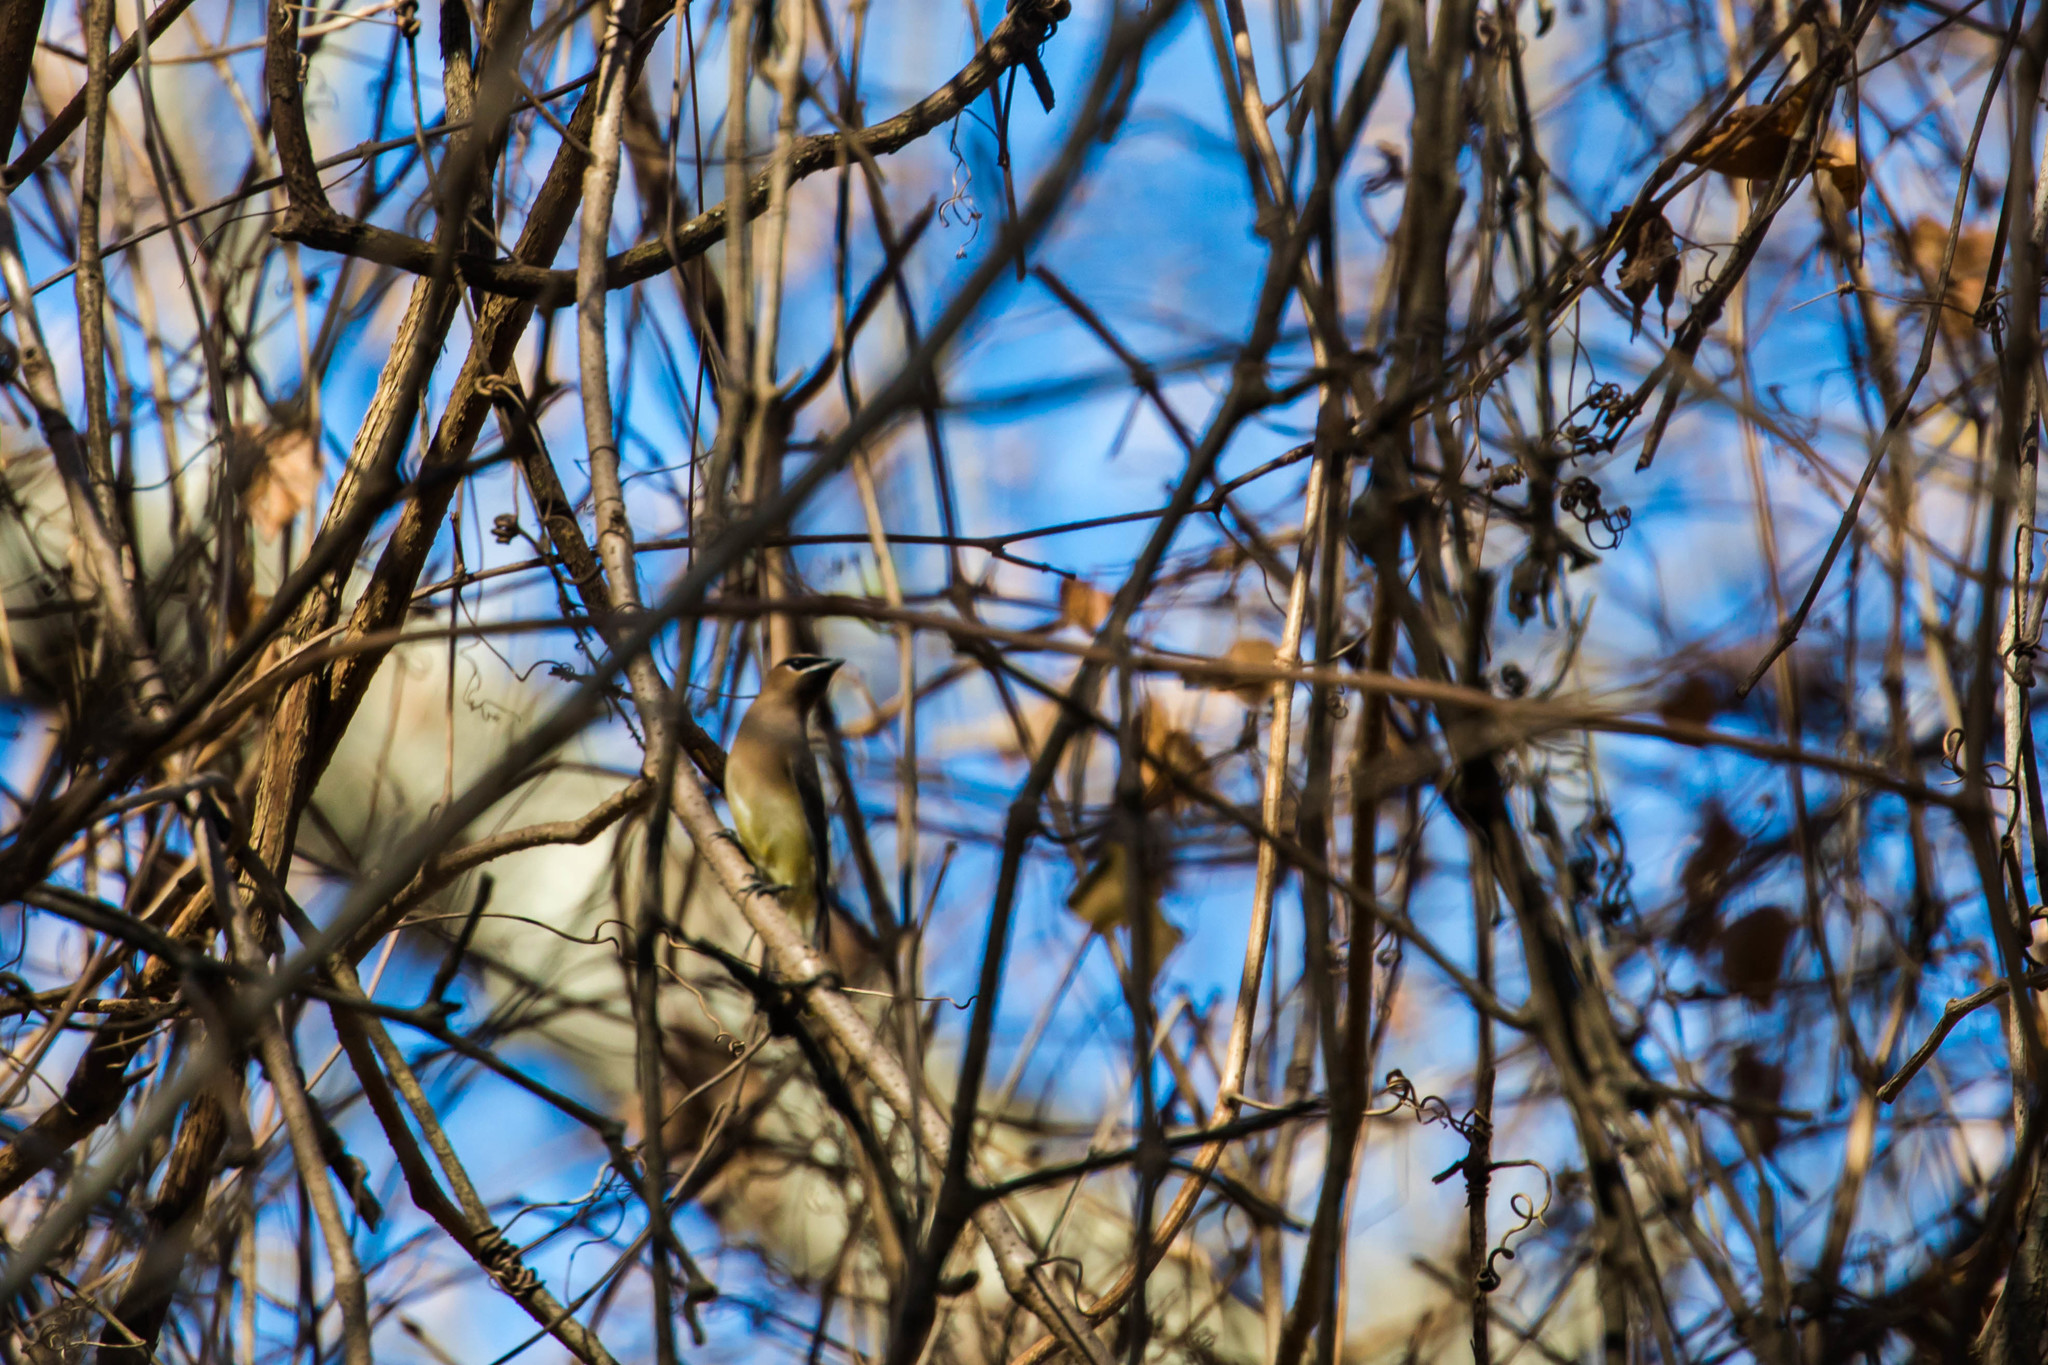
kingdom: Animalia
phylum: Chordata
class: Aves
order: Passeriformes
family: Bombycillidae
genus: Bombycilla
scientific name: Bombycilla cedrorum
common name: Cedar waxwing
